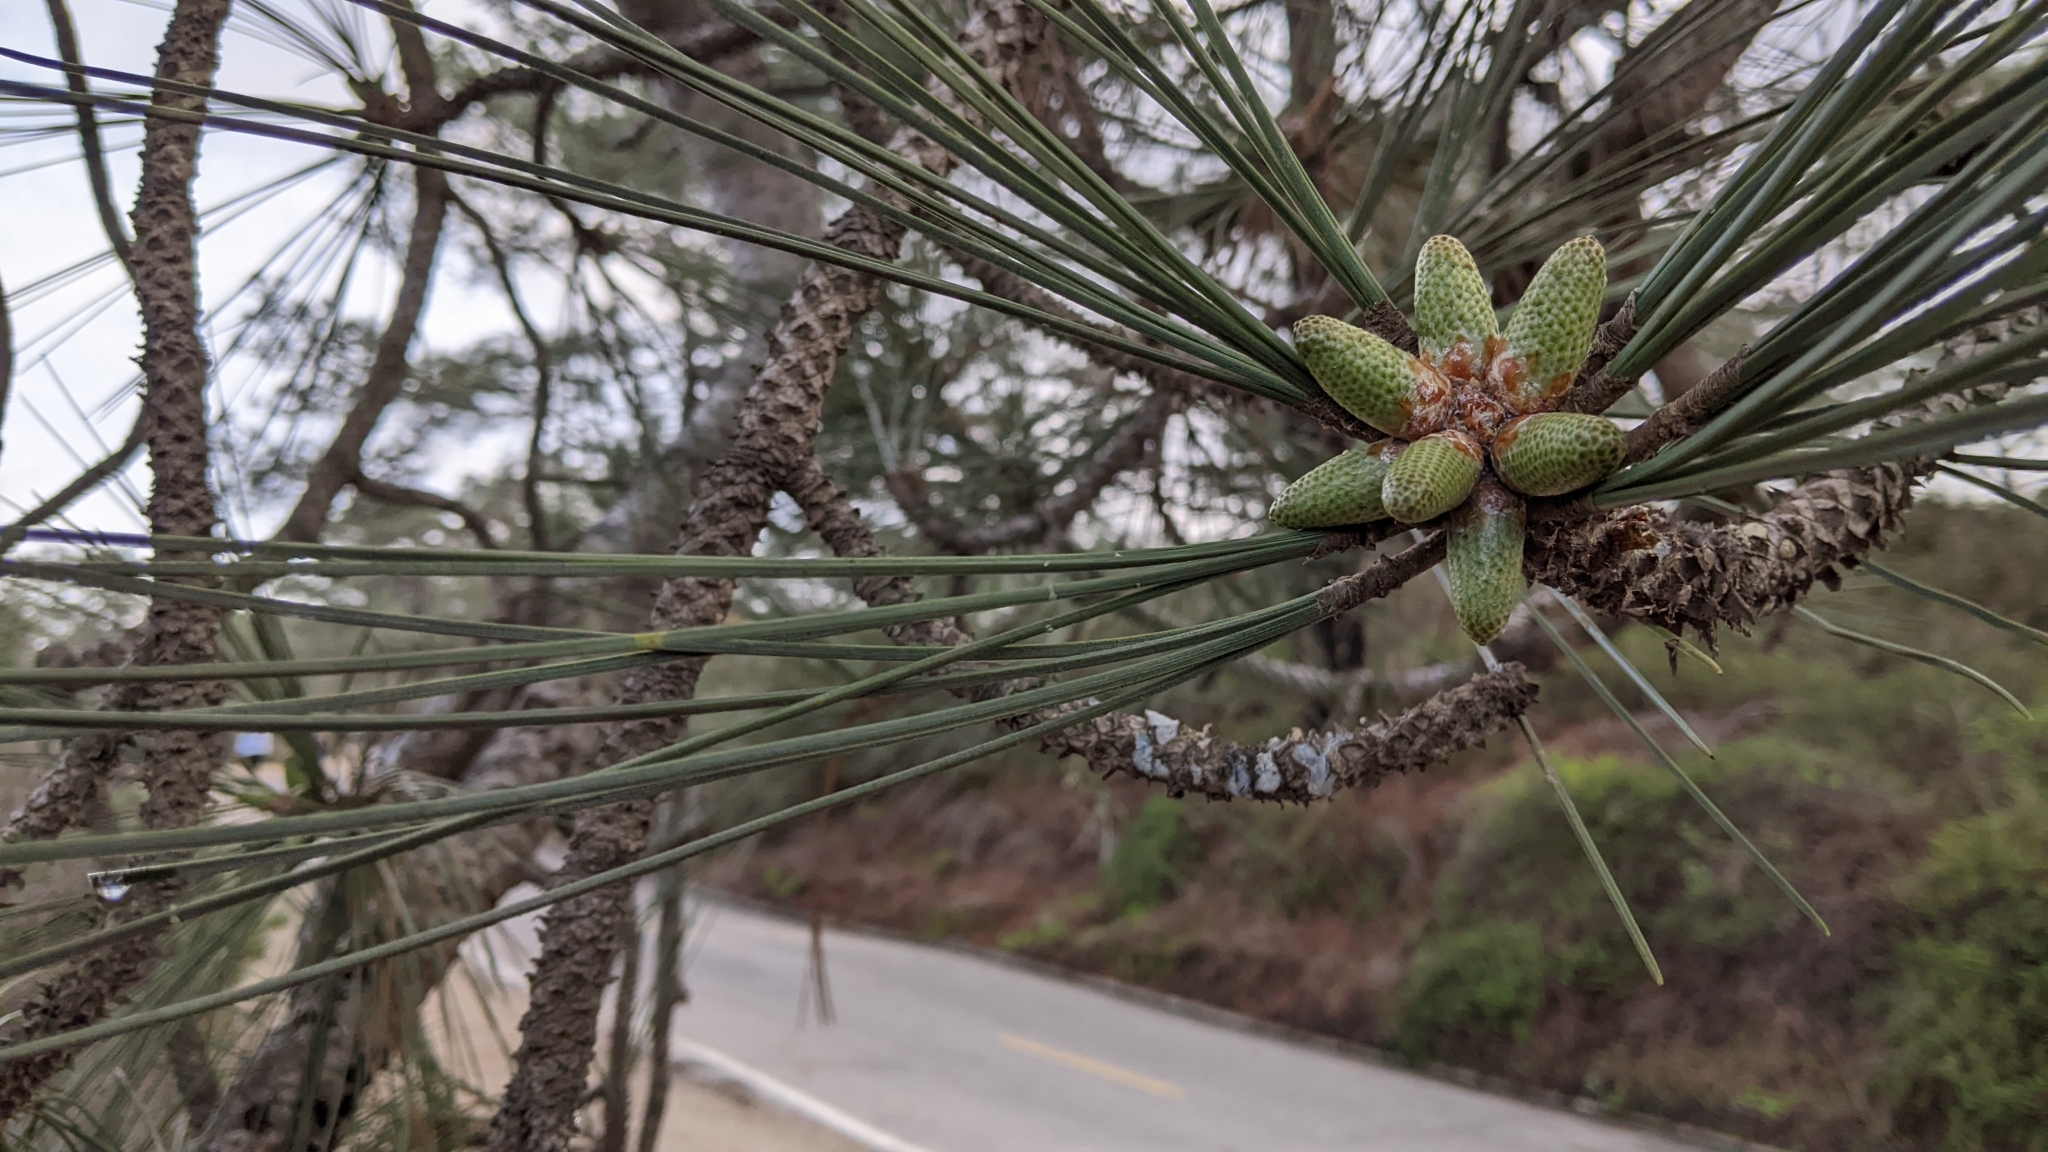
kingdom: Plantae
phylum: Tracheophyta
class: Pinopsida
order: Pinales
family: Pinaceae
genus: Pinus
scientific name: Pinus torreyana
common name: Torrey pine
